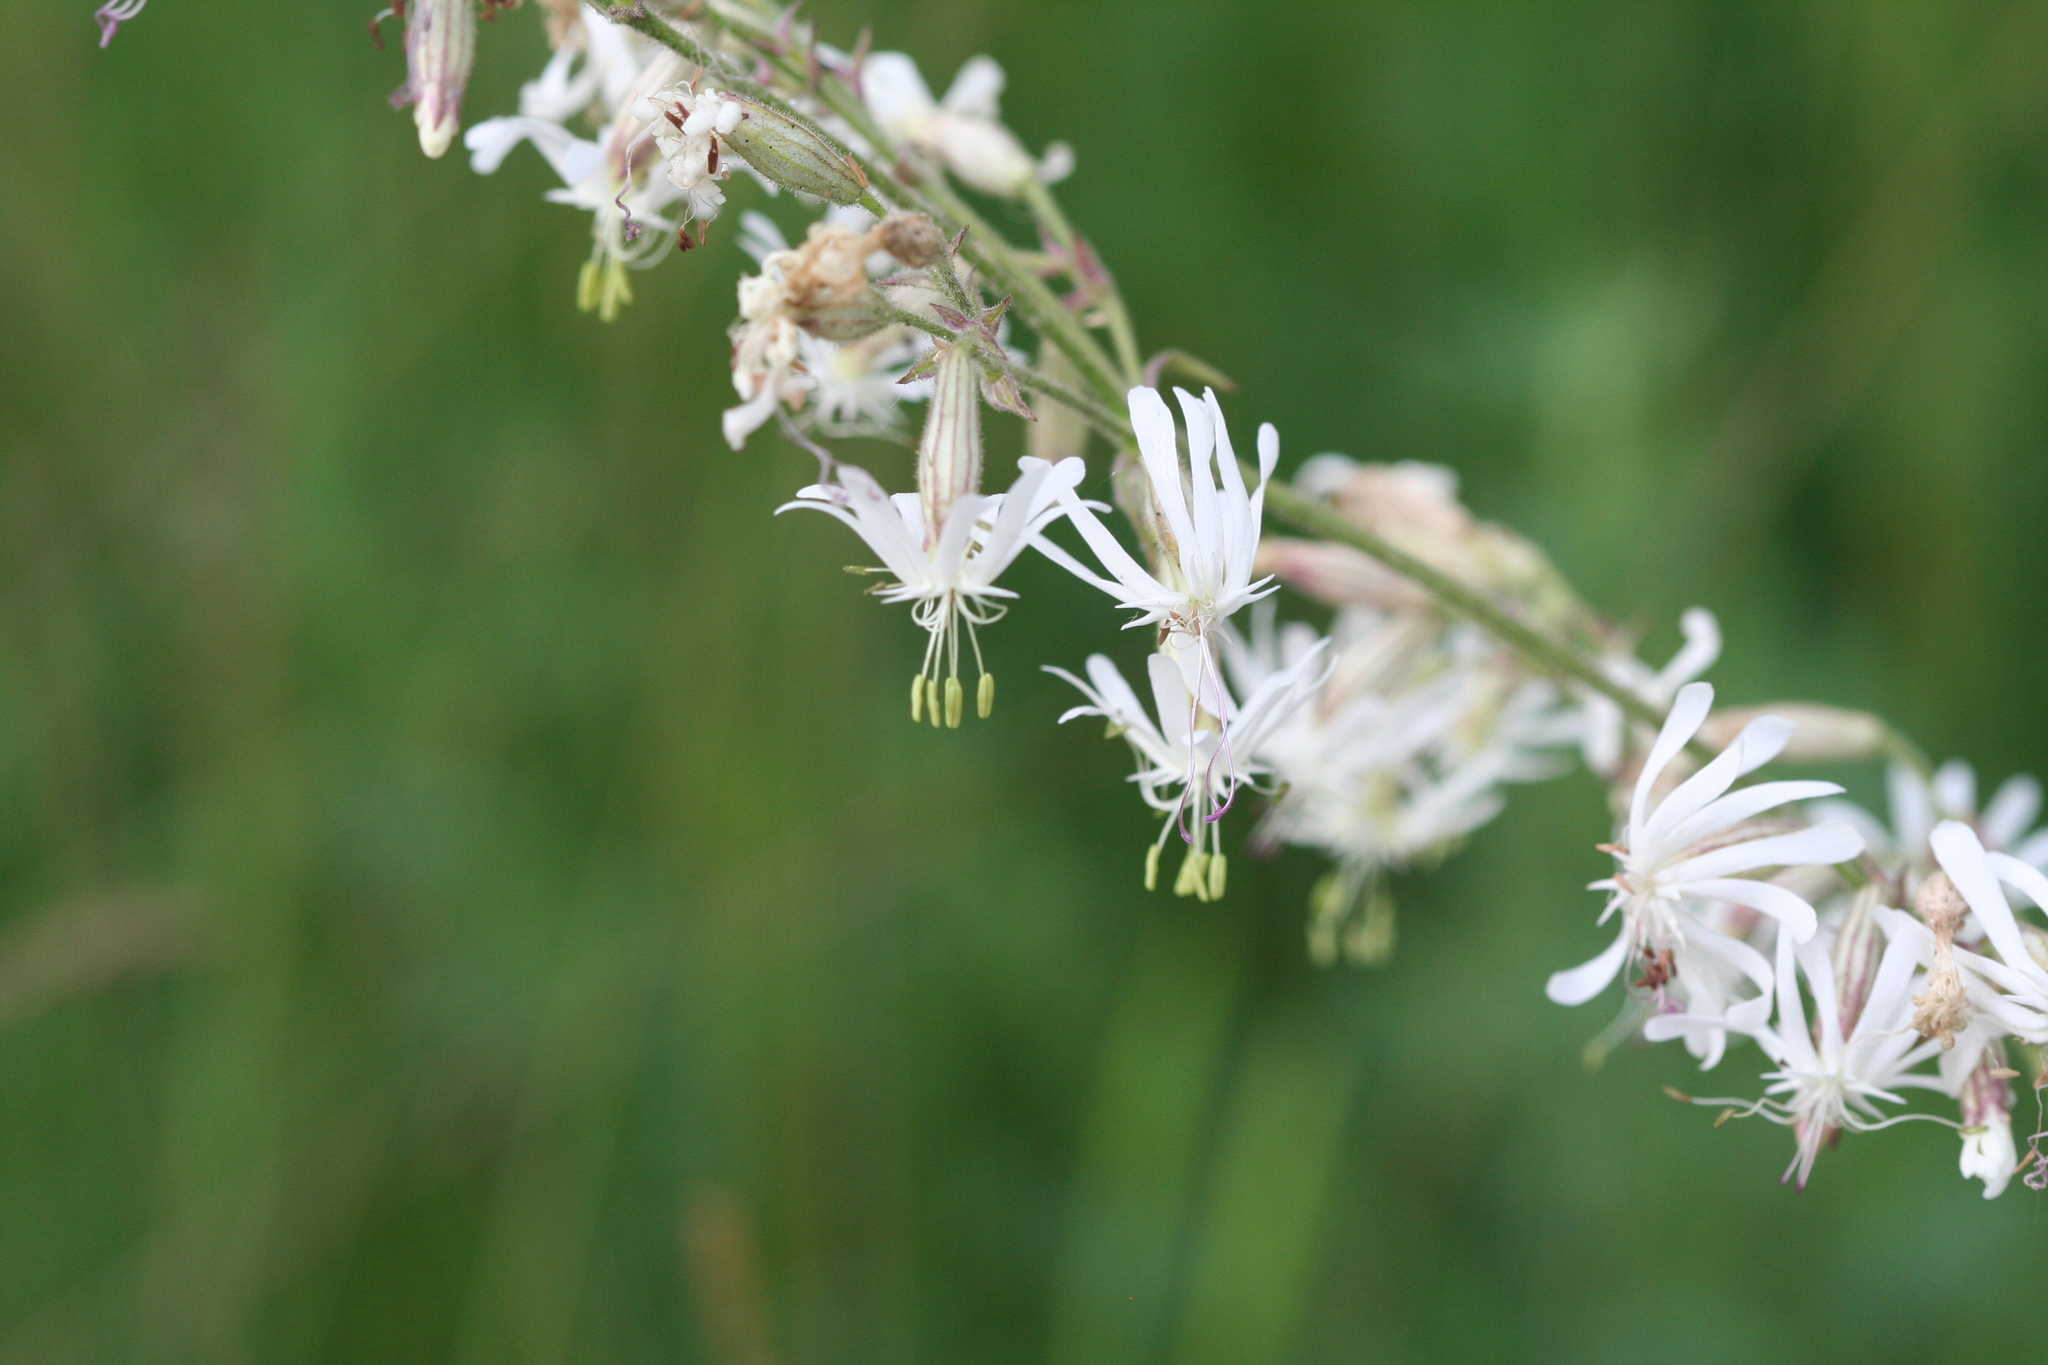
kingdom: Plantae
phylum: Tracheophyta
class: Magnoliopsida
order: Caryophyllales
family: Caryophyllaceae
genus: Silene
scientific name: Silene nutans
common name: Nottingham catchfly
